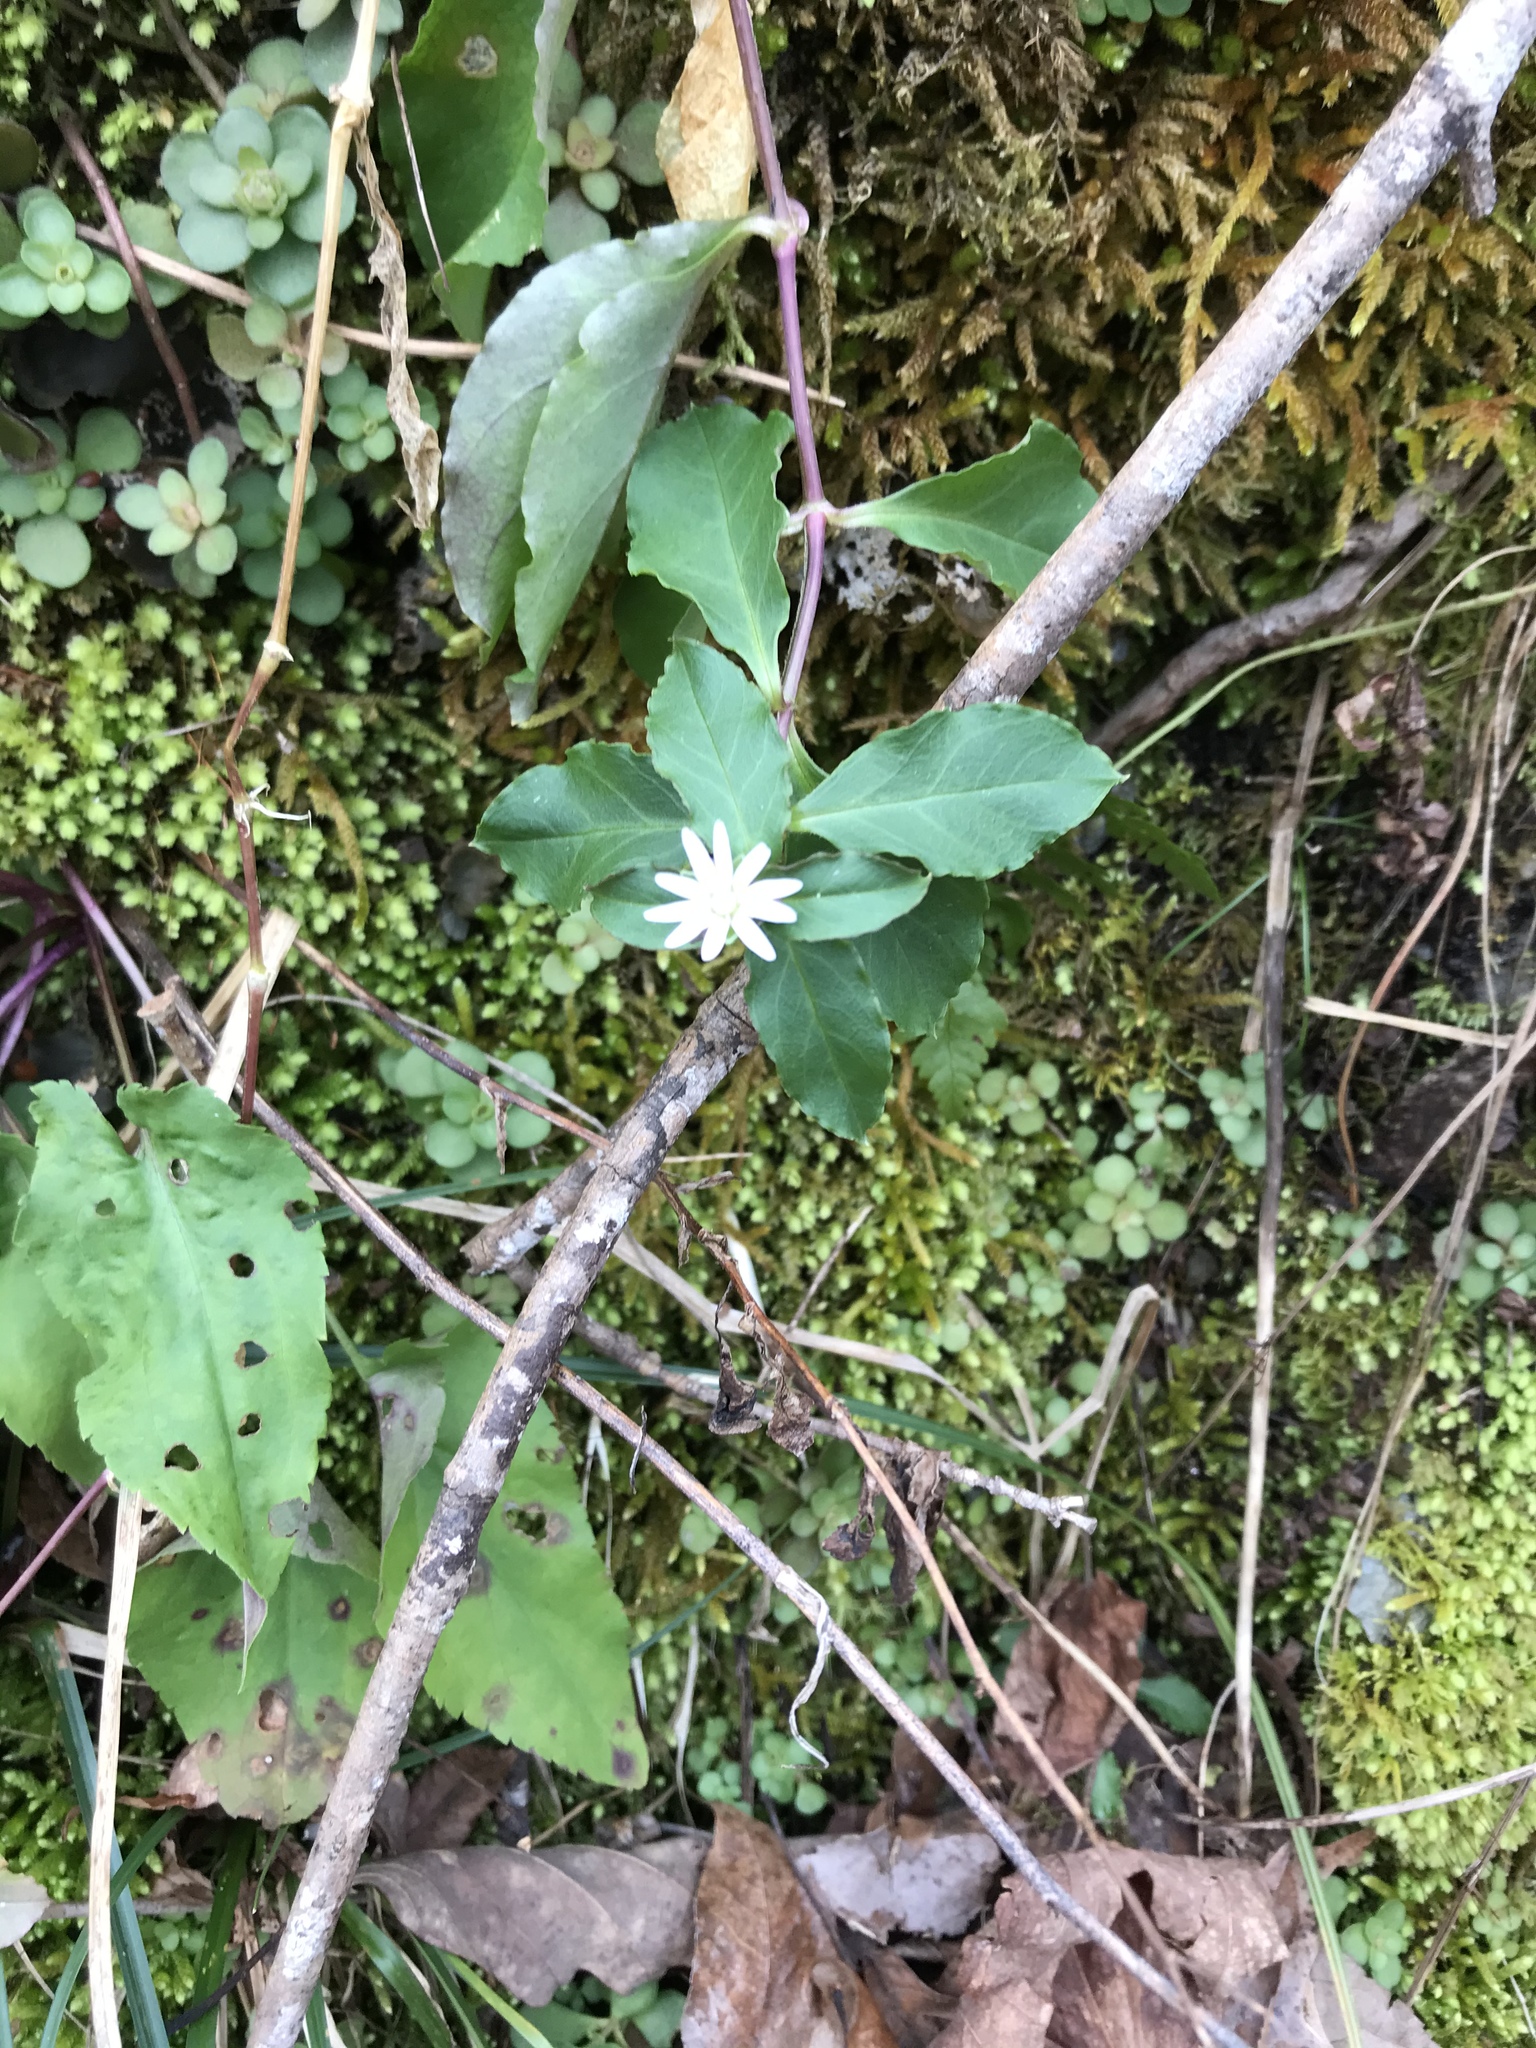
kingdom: Plantae
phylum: Tracheophyta
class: Magnoliopsida
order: Caryophyllales
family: Caryophyllaceae
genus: Stellaria
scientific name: Stellaria pubera
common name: Star chickweed
